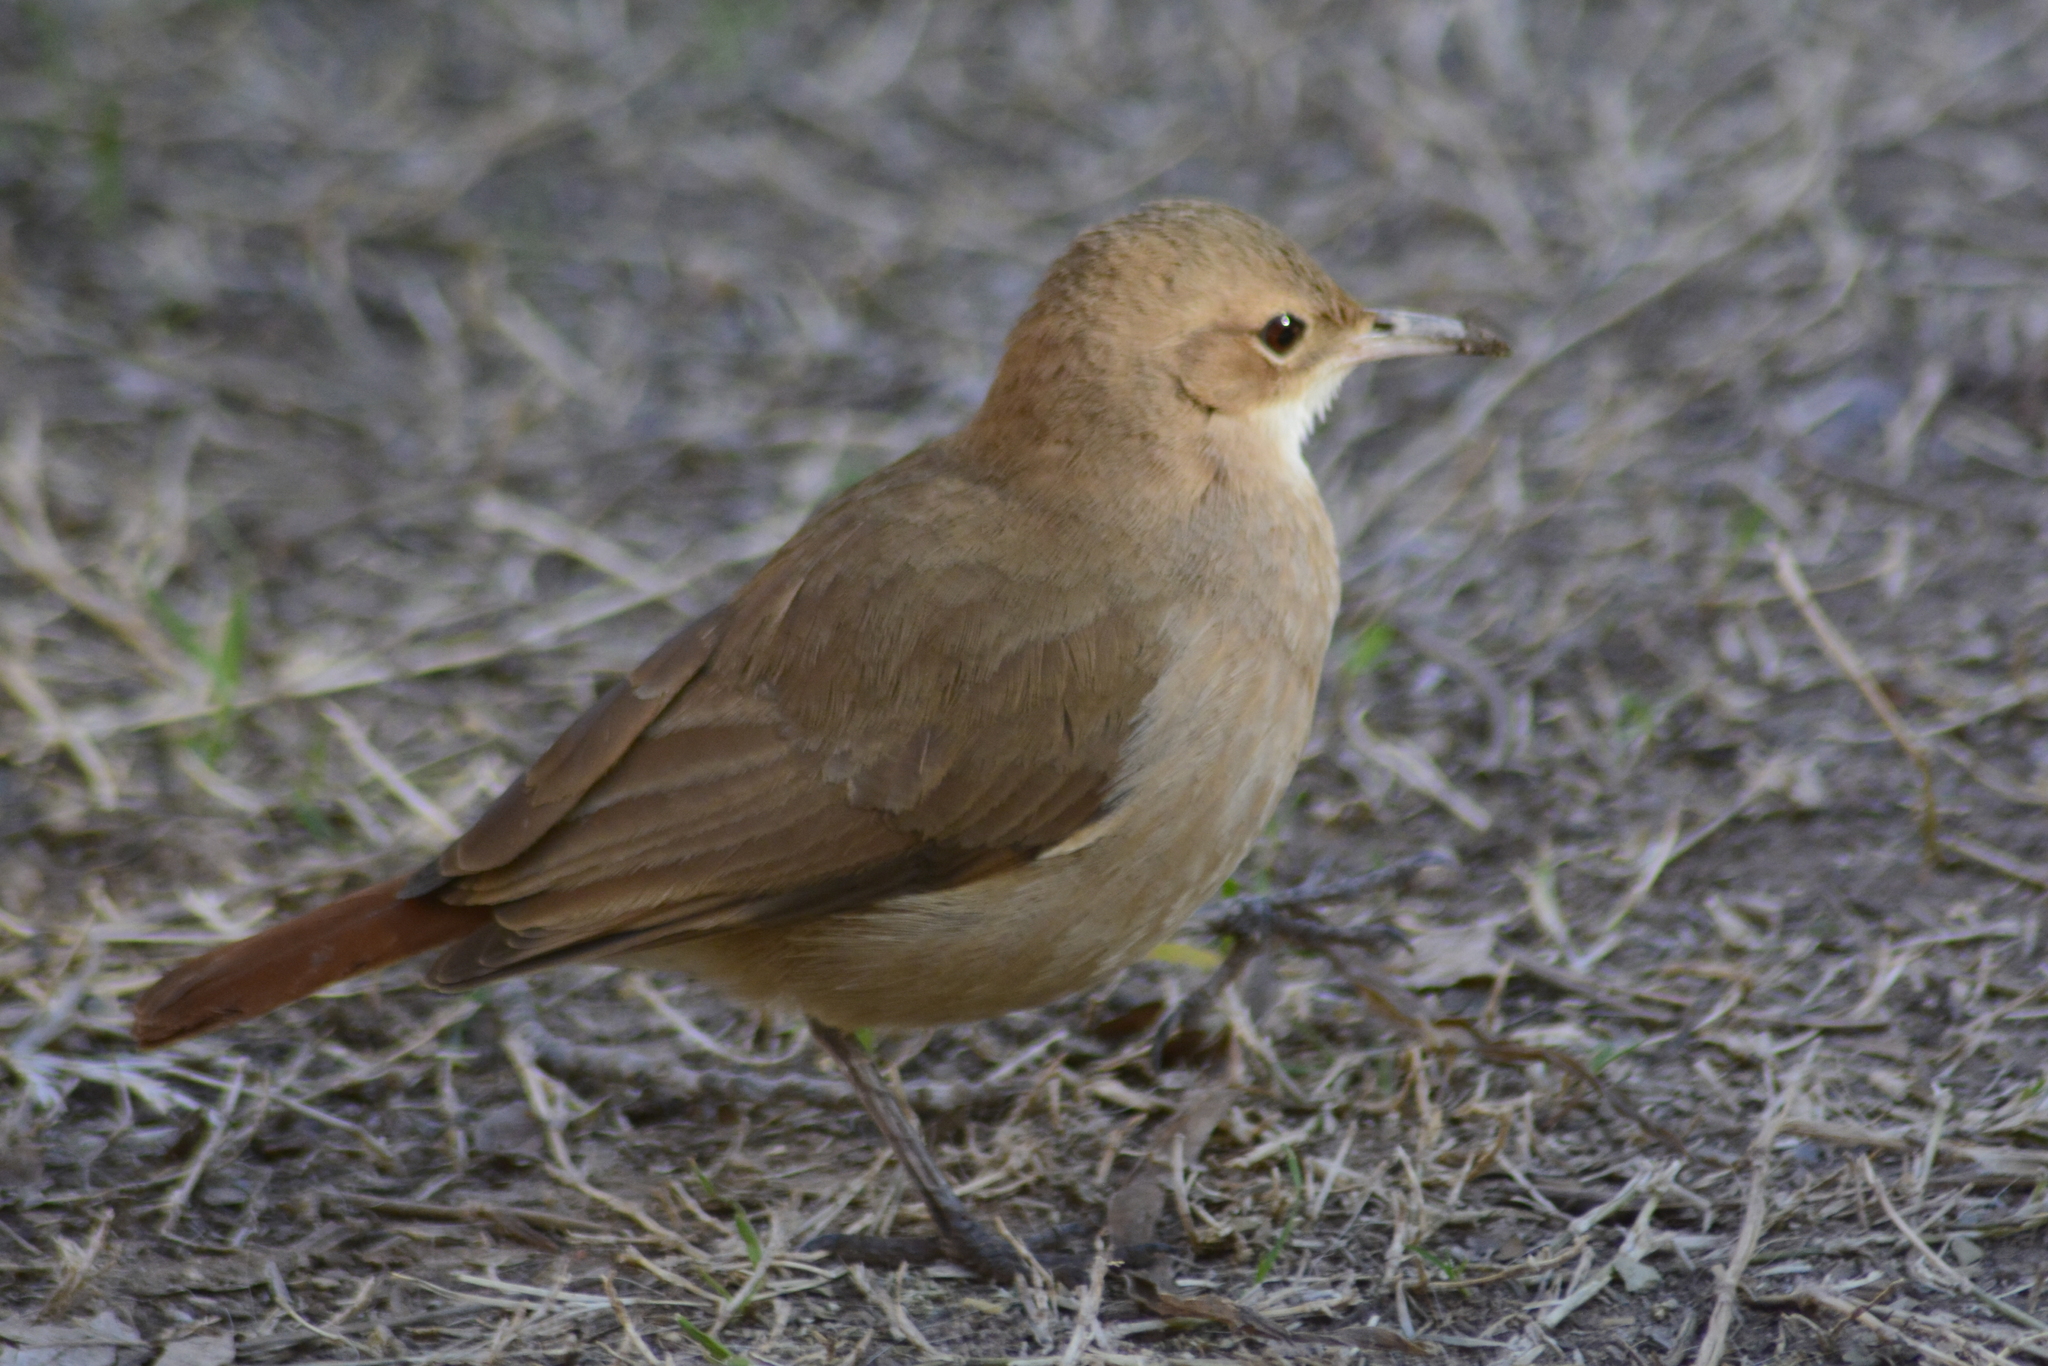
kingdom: Animalia
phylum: Chordata
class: Aves
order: Passeriformes
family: Furnariidae
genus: Furnarius
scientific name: Furnarius rufus
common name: Rufous hornero
